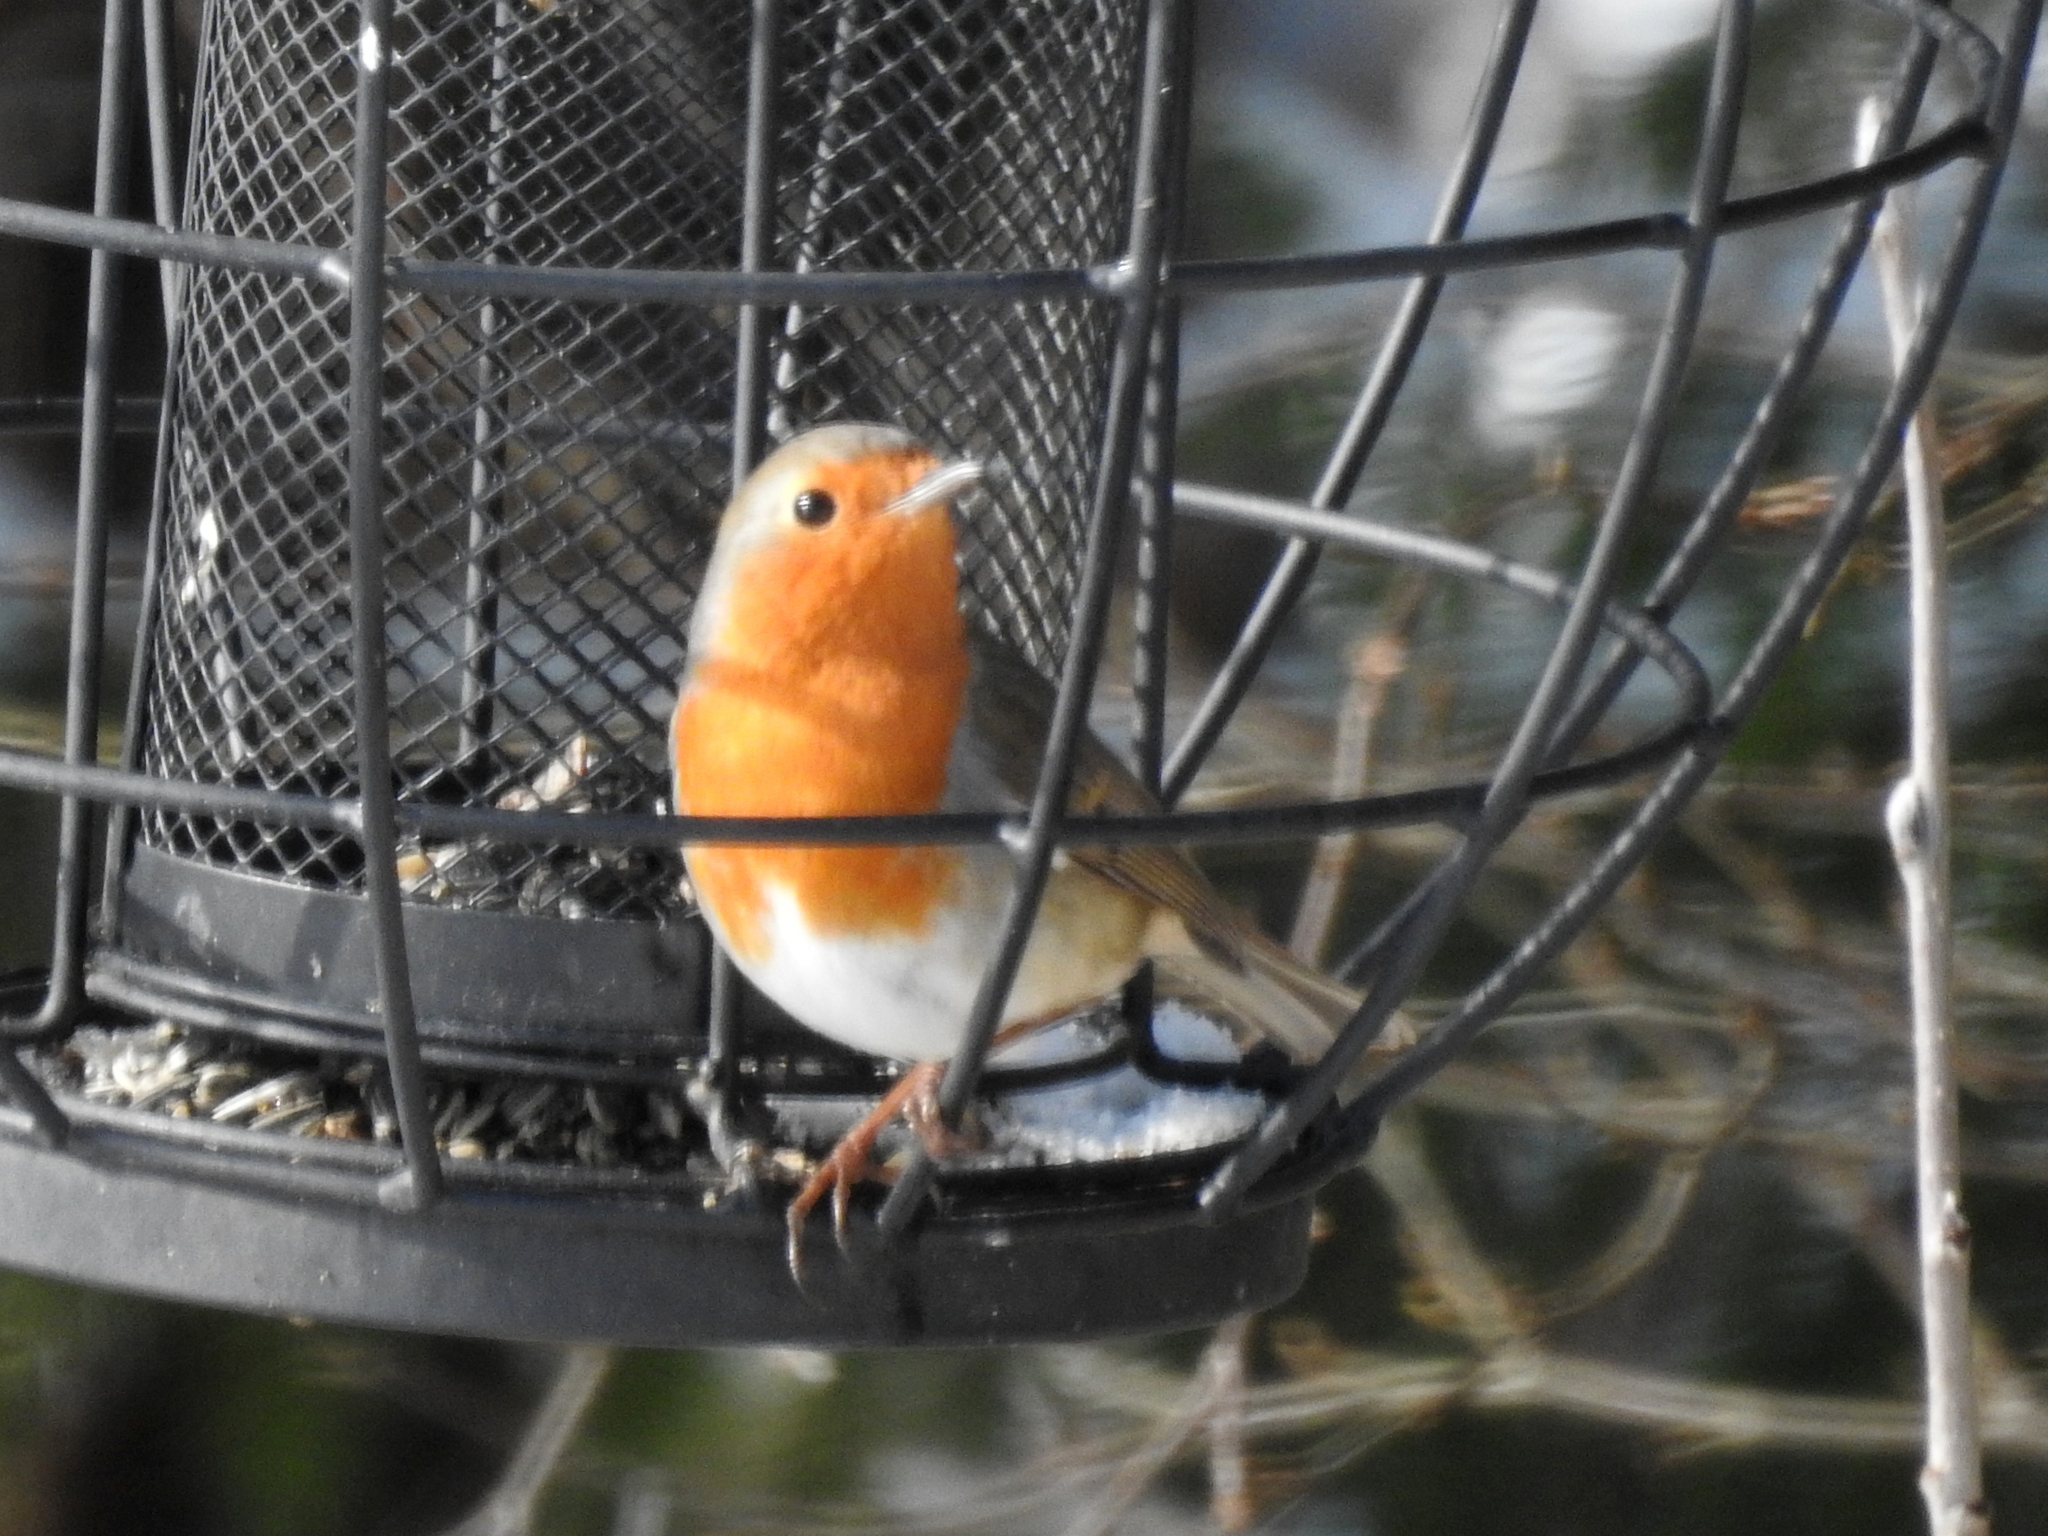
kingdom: Animalia
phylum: Chordata
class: Aves
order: Passeriformes
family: Muscicapidae
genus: Erithacus
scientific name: Erithacus rubecula
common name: European robin
